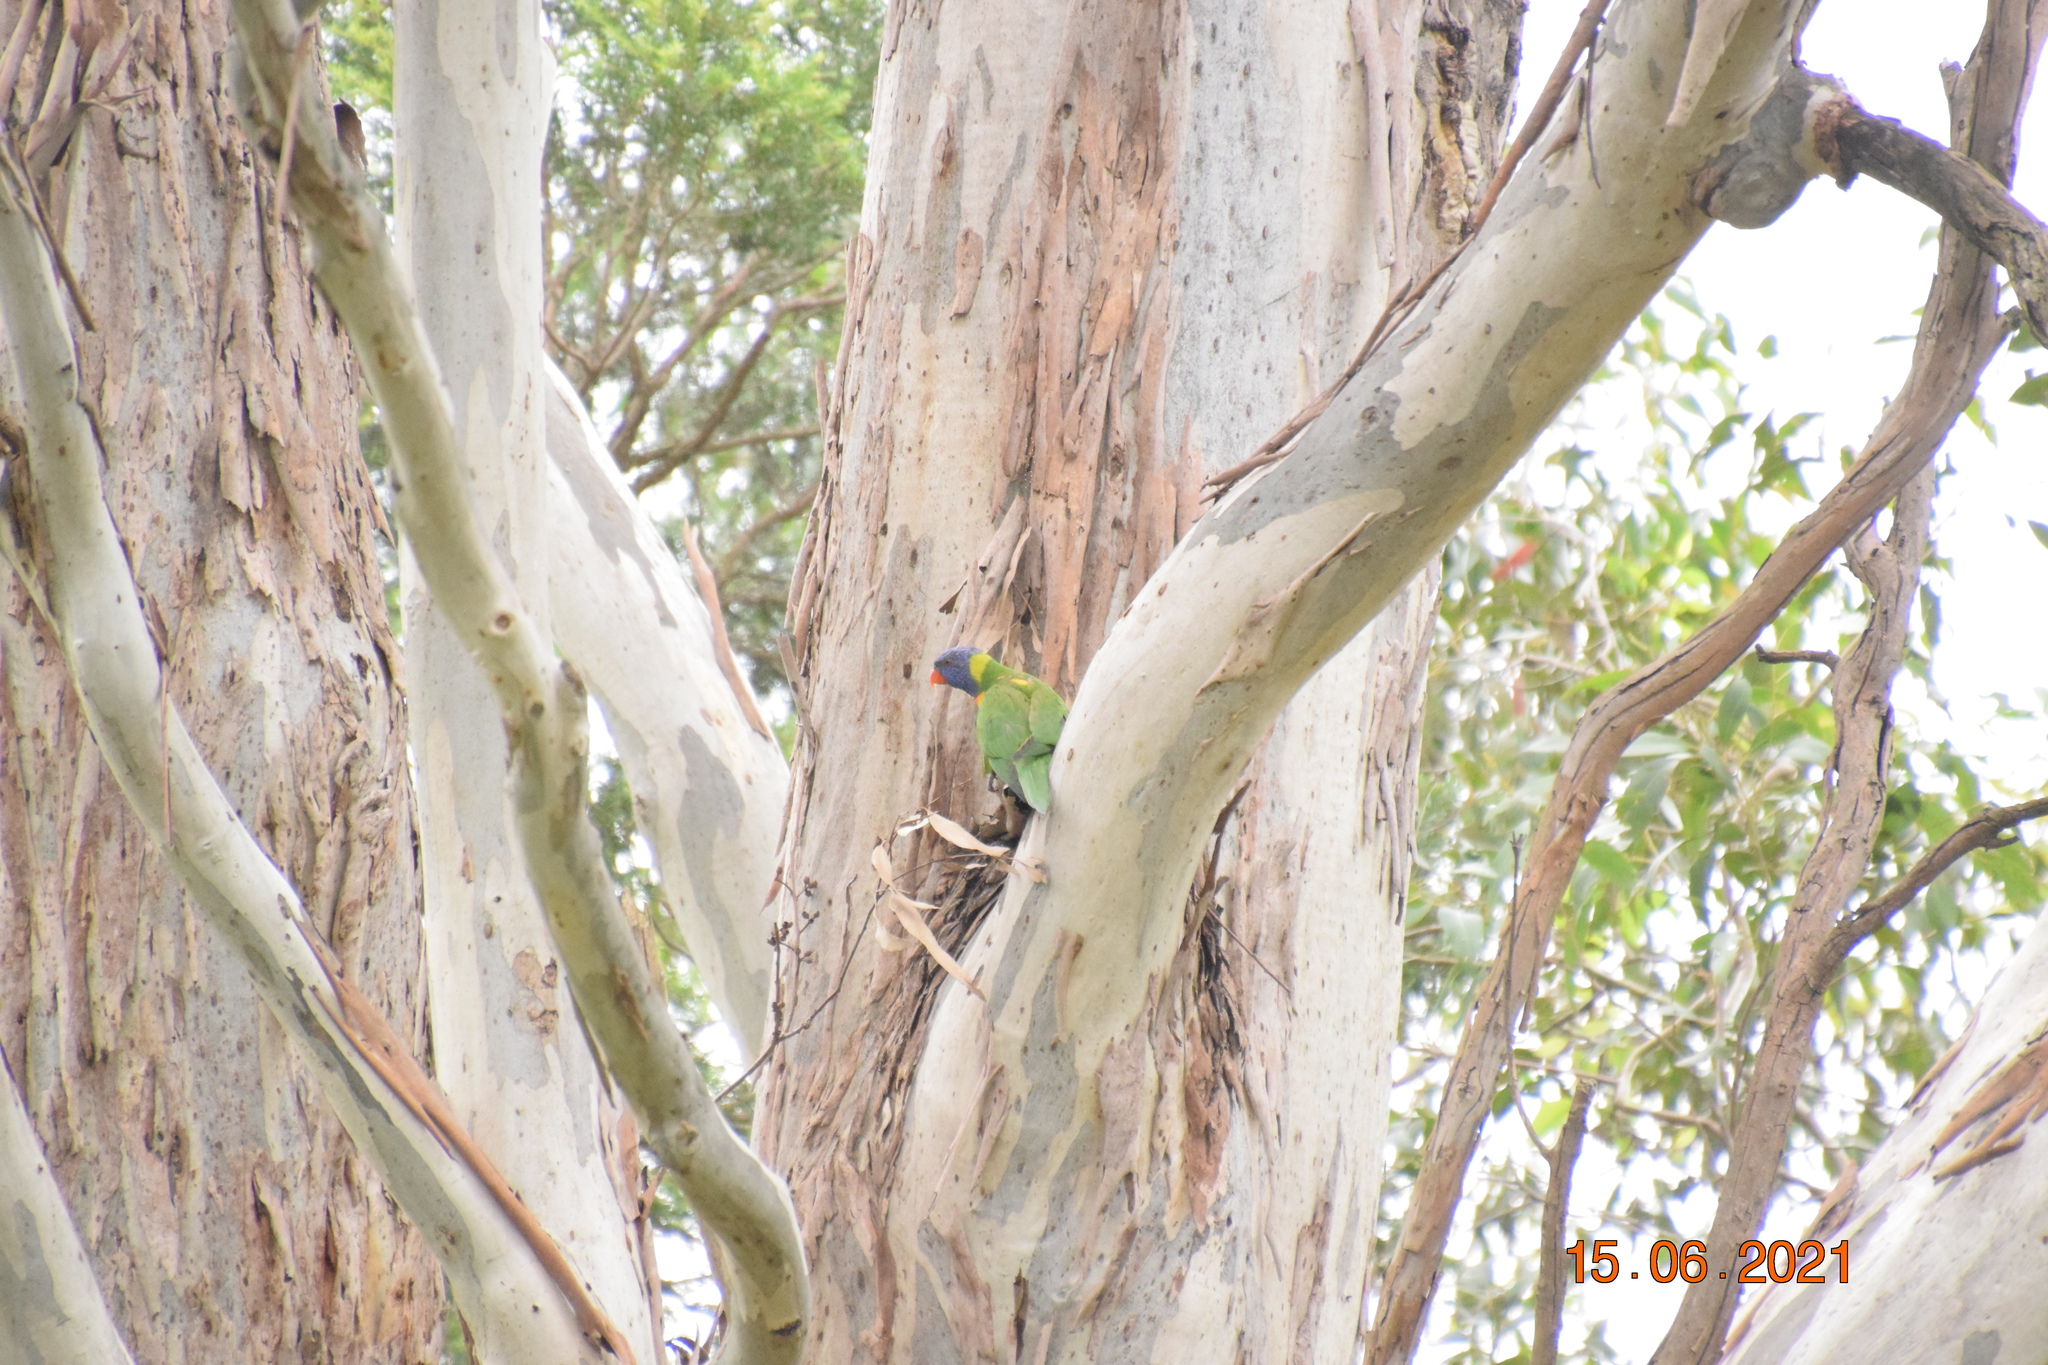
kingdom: Animalia
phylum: Chordata
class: Aves
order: Psittaciformes
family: Psittacidae
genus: Trichoglossus
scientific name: Trichoglossus haematodus
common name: Coconut lorikeet
